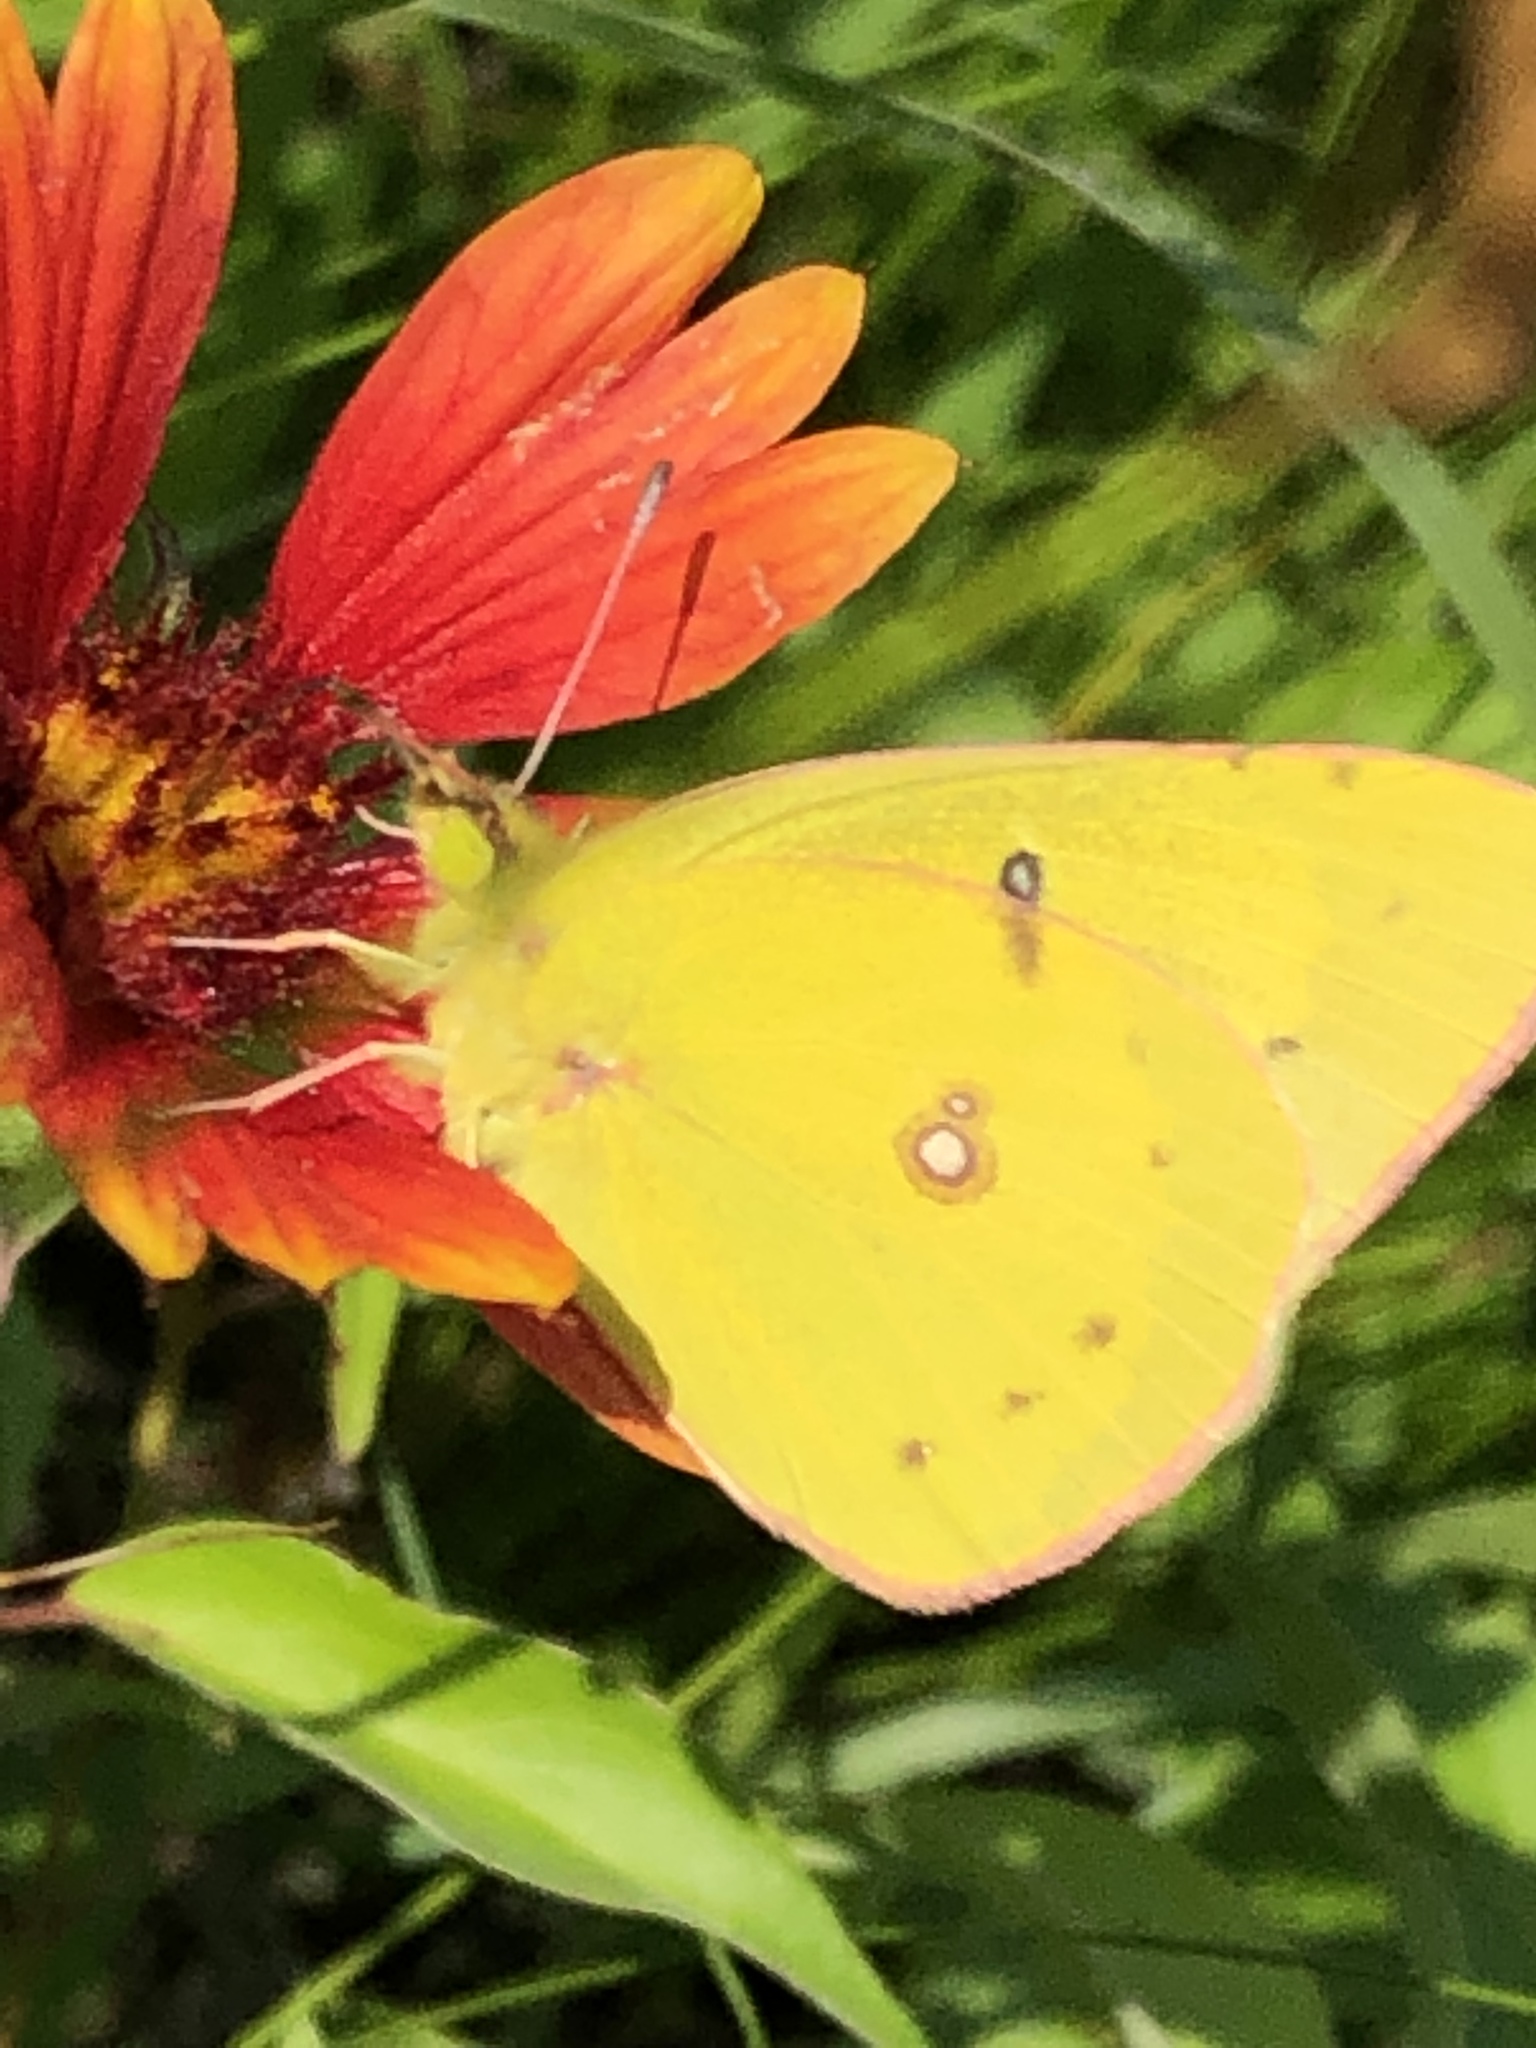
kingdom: Animalia
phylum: Arthropoda
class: Insecta
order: Lepidoptera
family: Pieridae
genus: Colias
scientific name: Colias eurytheme
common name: Alfalfa butterfly
